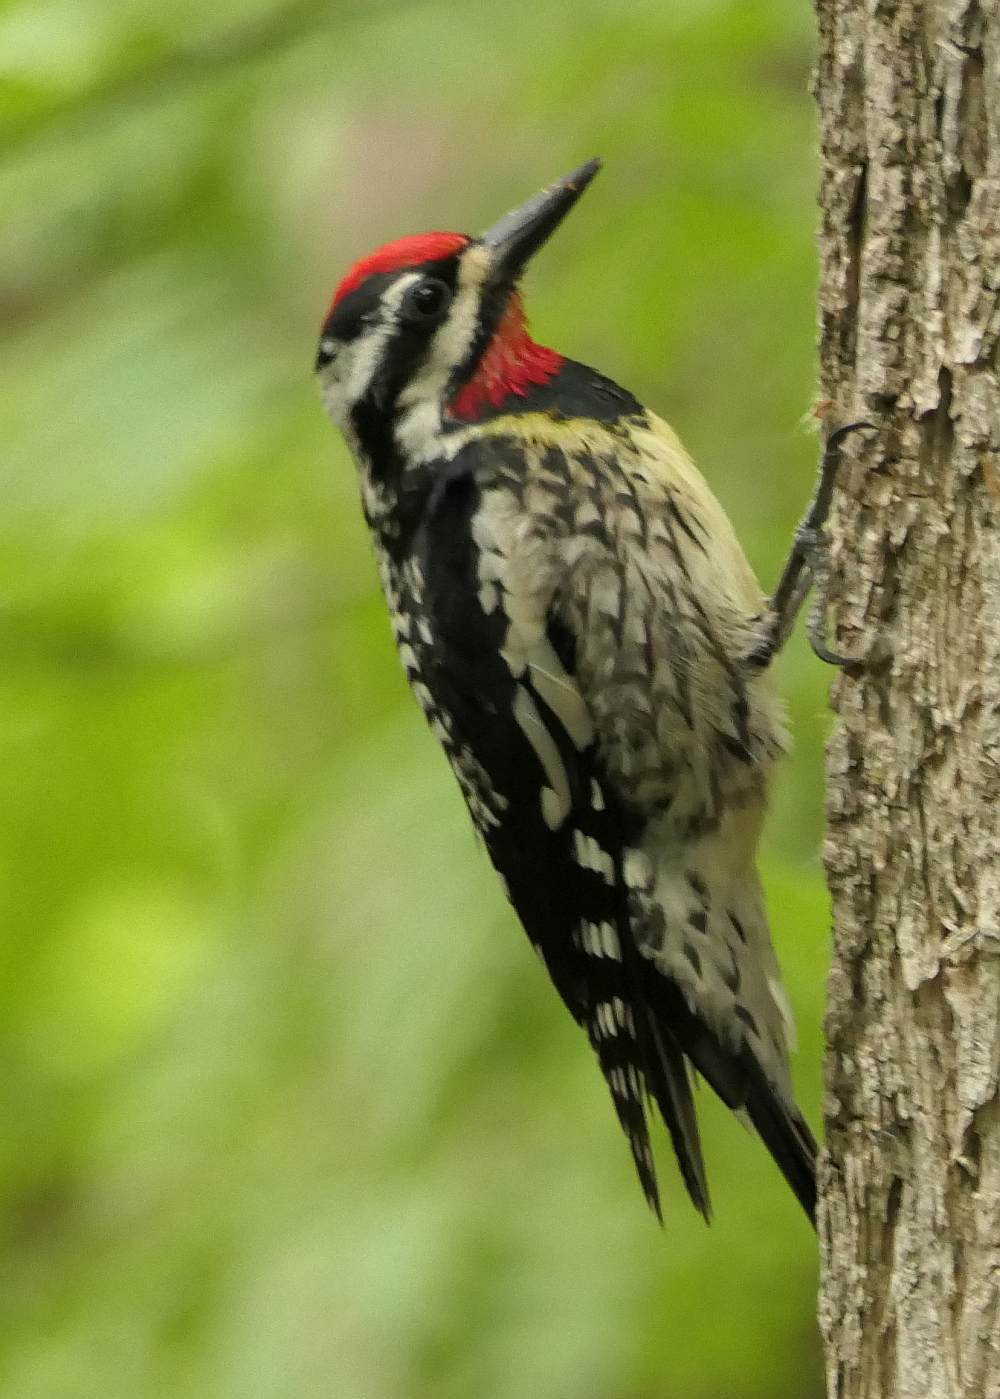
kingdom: Animalia
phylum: Chordata
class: Aves
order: Piciformes
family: Picidae
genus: Sphyrapicus
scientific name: Sphyrapicus varius
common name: Yellow-bellied sapsucker
